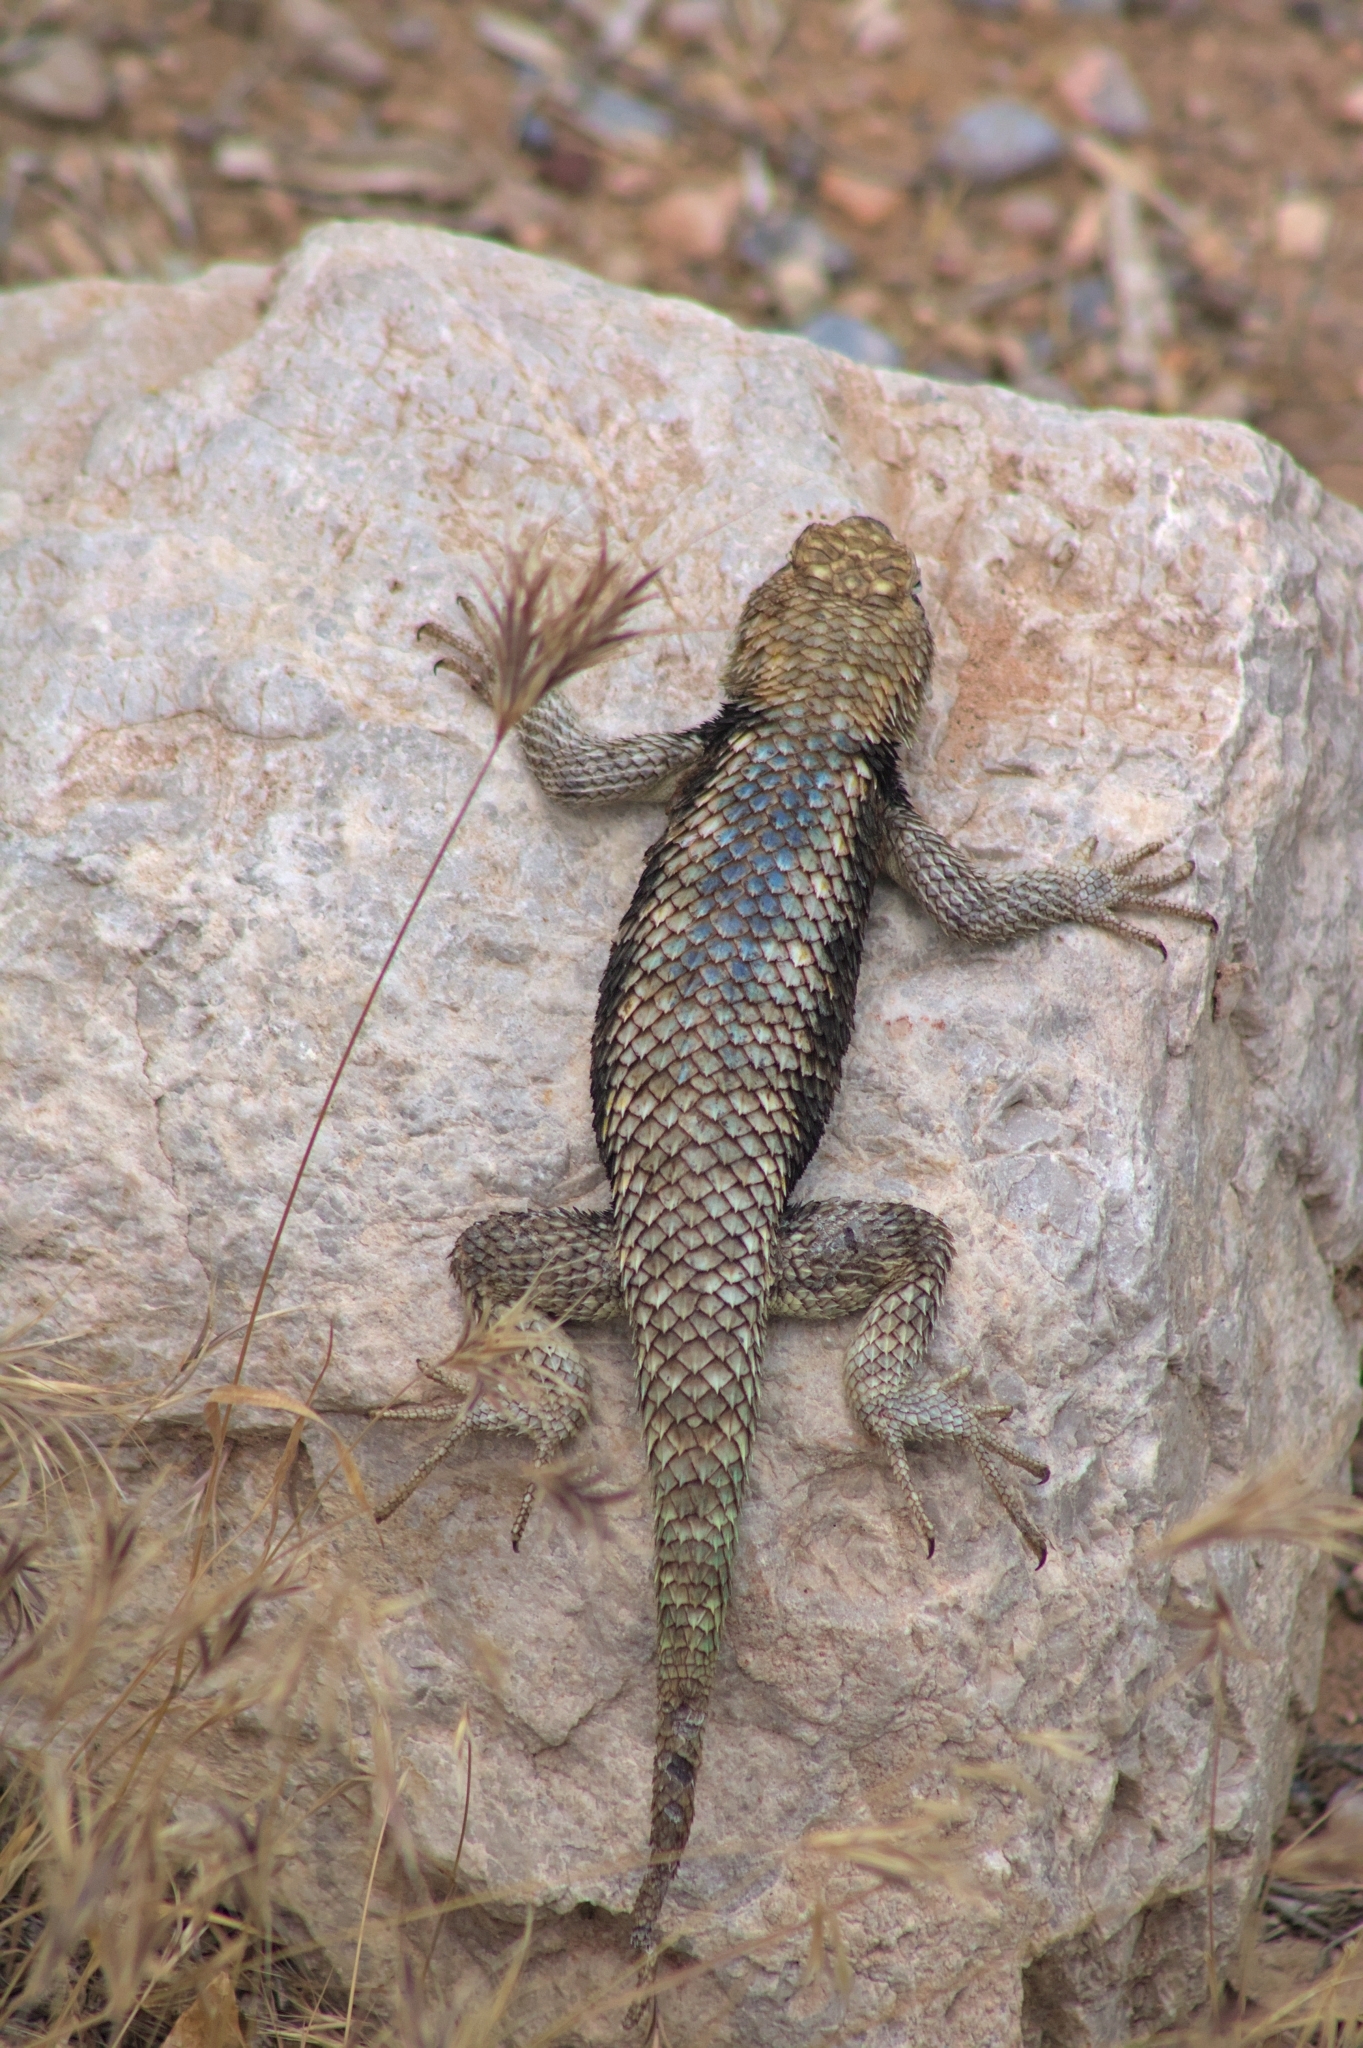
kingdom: Animalia
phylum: Chordata
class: Squamata
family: Phrynosomatidae
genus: Sceloporus
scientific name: Sceloporus magister
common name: Desert spiny lizard
